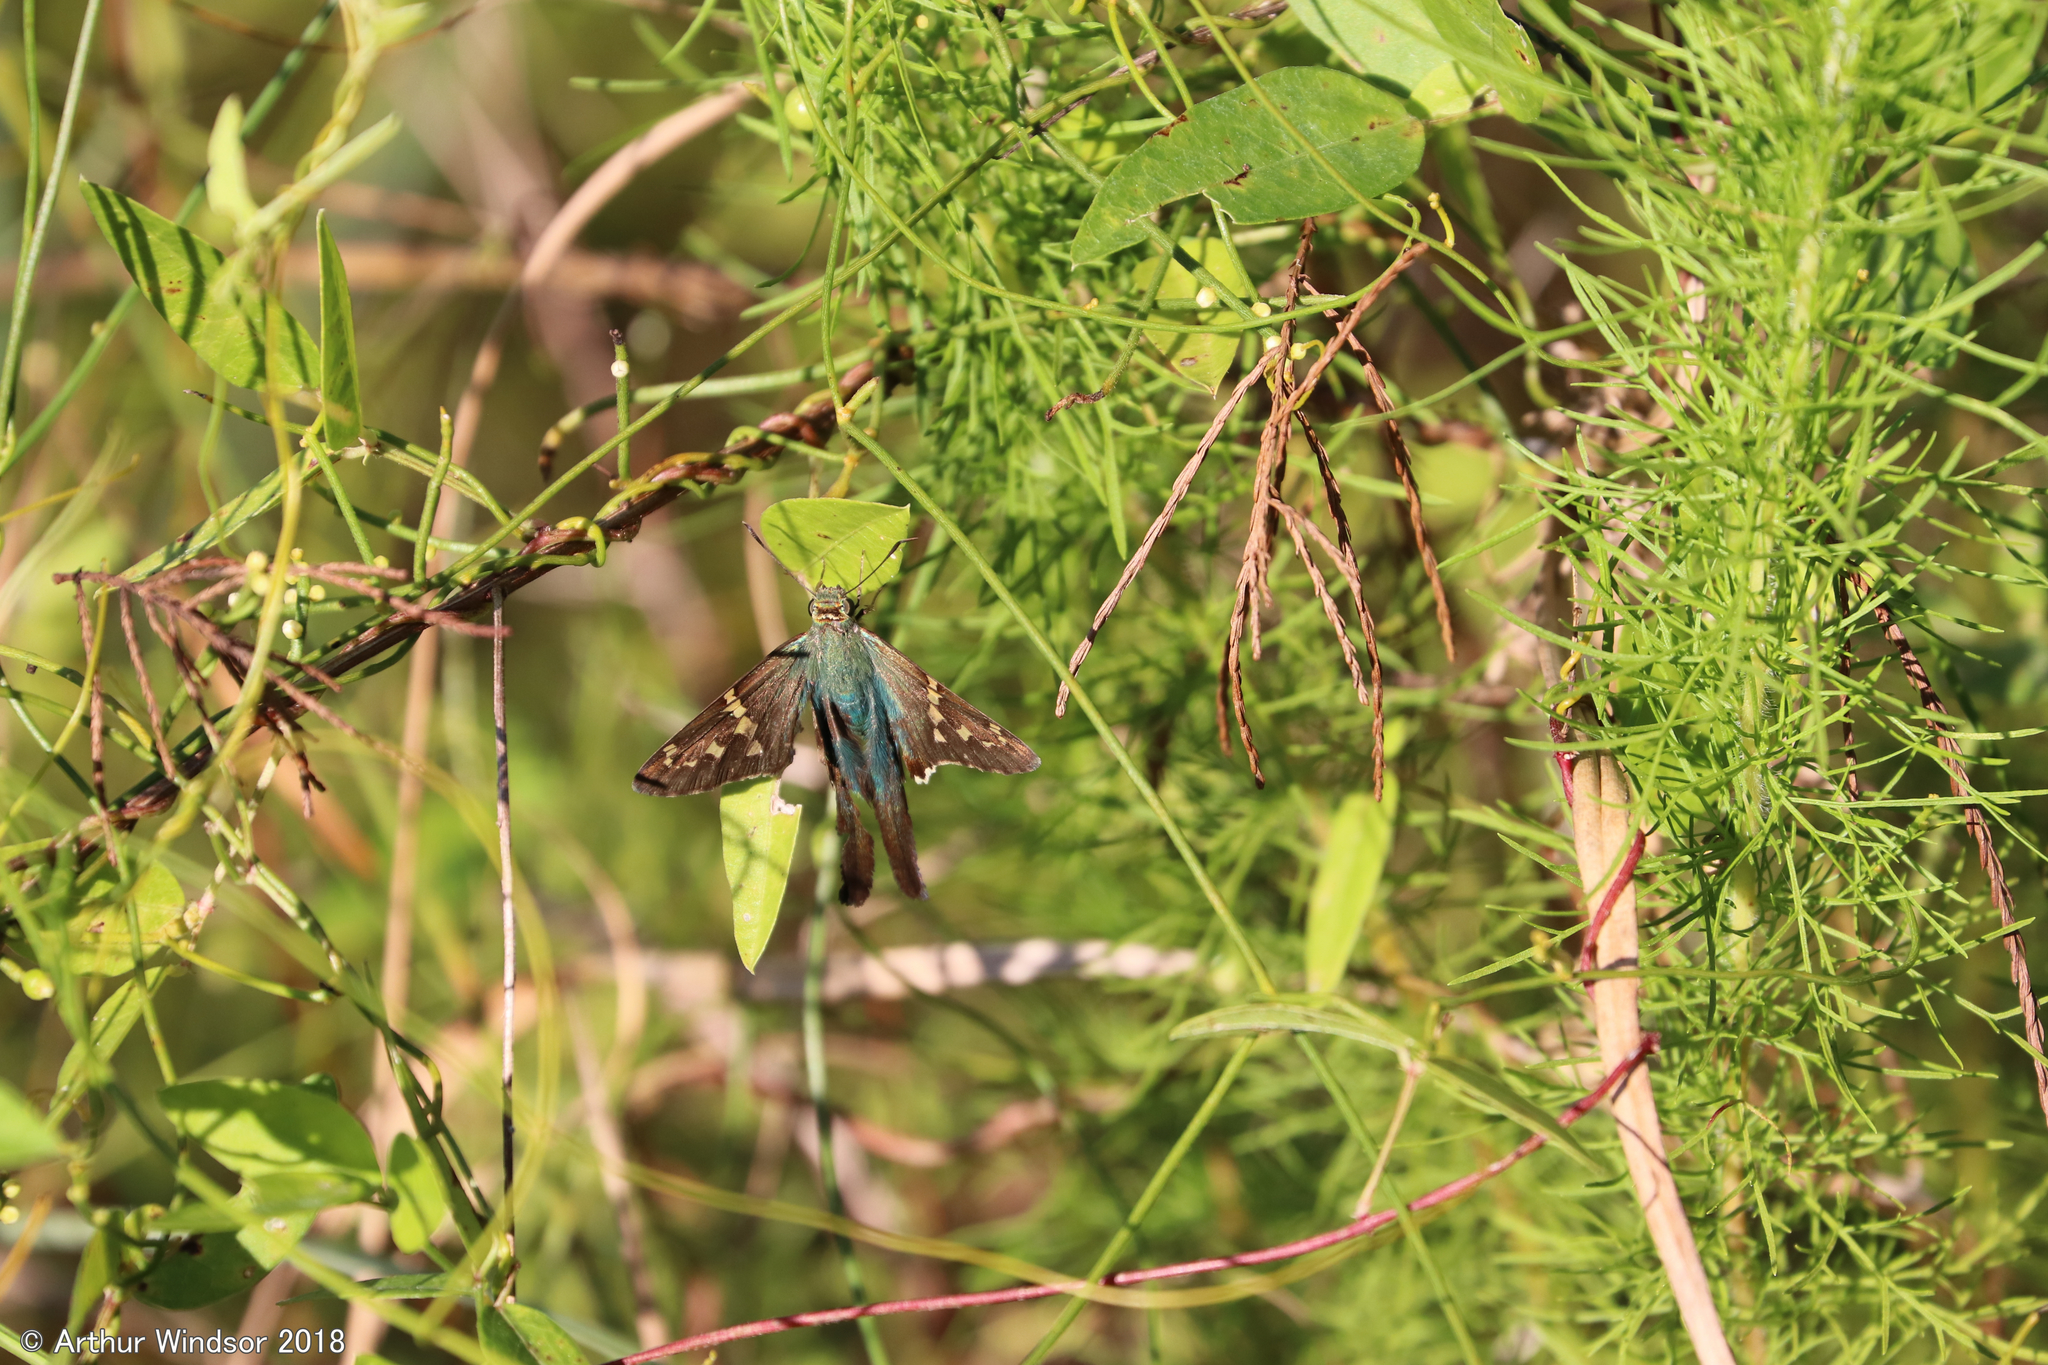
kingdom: Animalia
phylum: Arthropoda
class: Insecta
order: Lepidoptera
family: Hesperiidae
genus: Urbanus
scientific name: Urbanus proteus
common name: Long-tailed skipper
